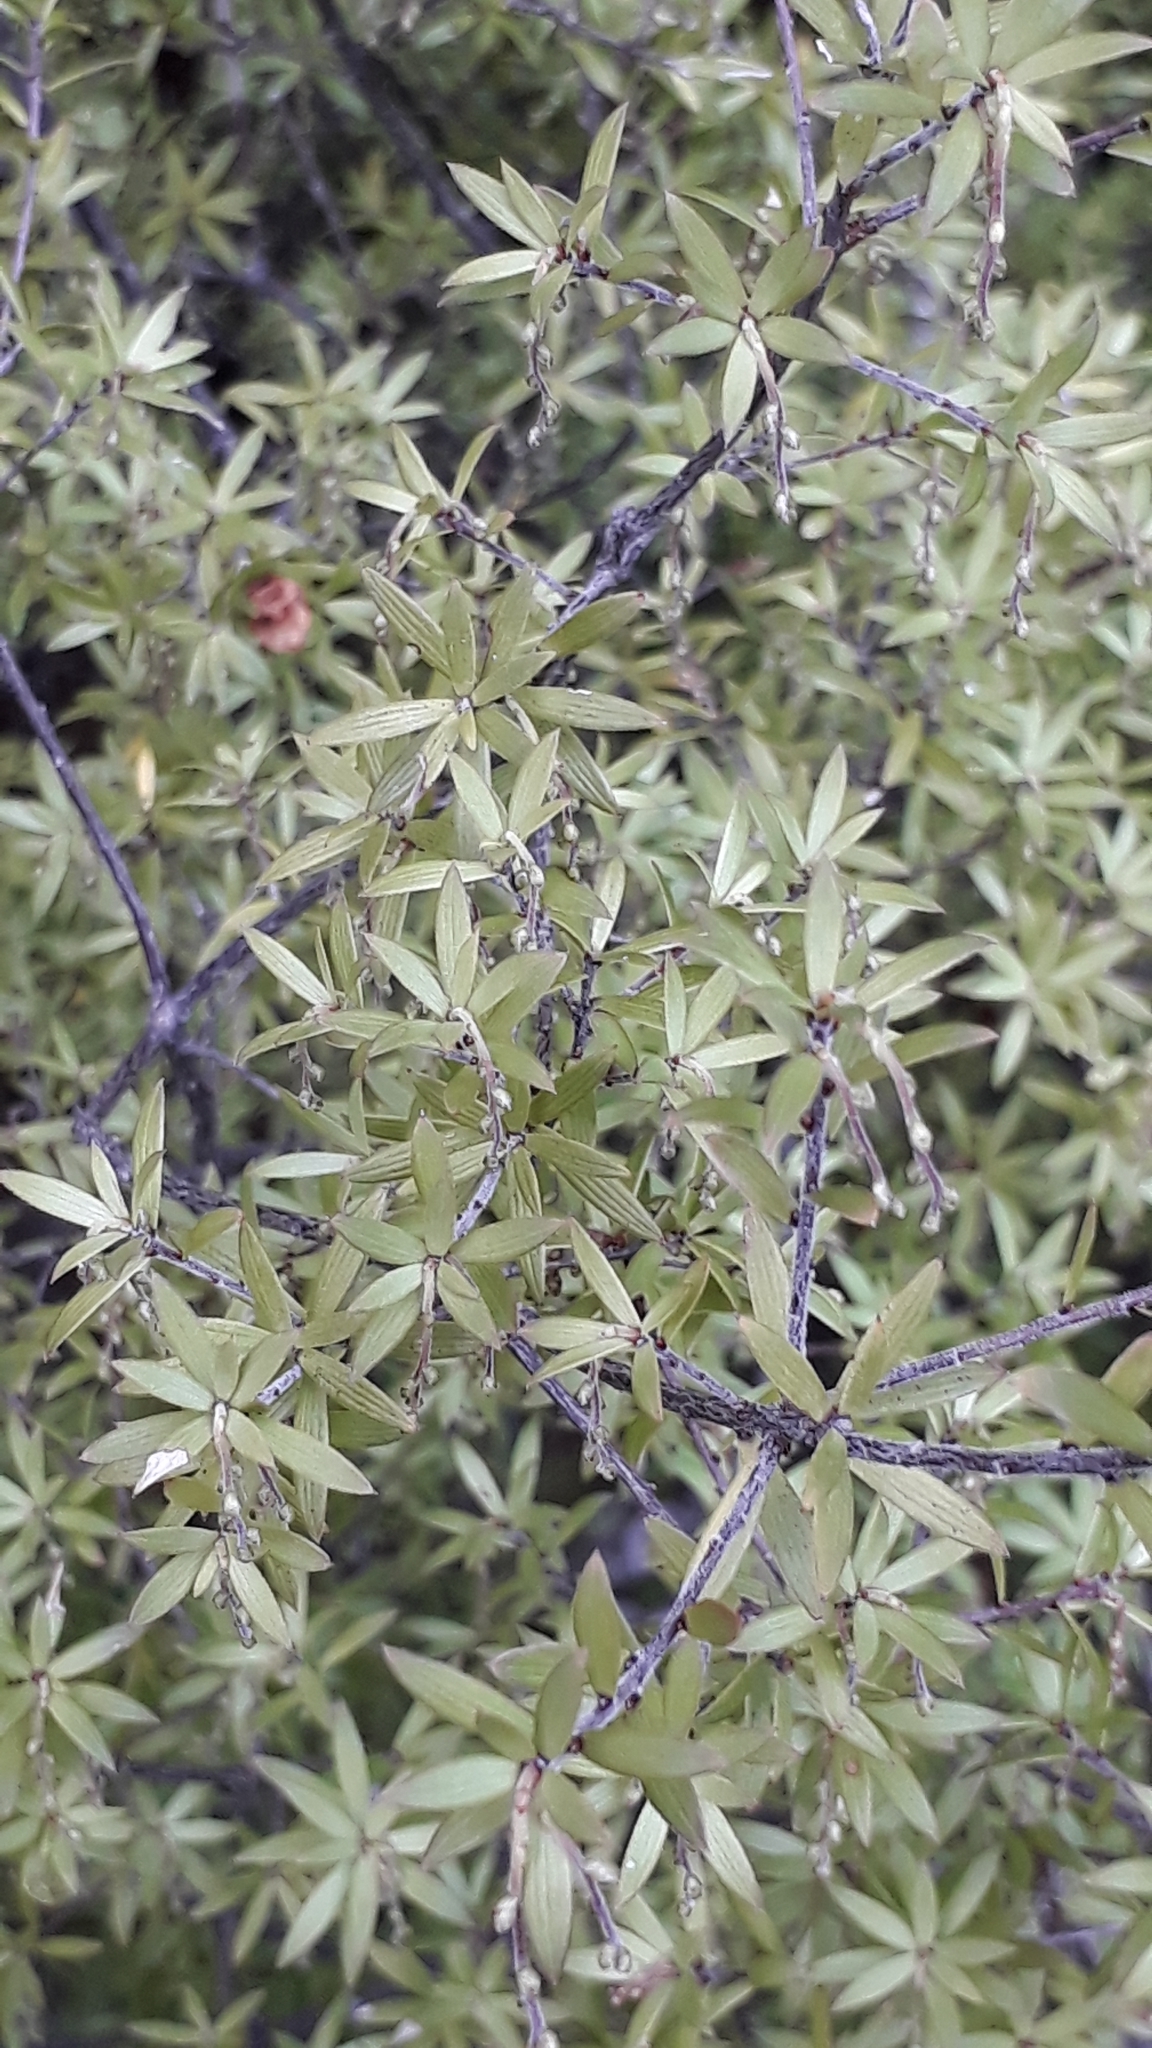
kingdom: Plantae
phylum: Tracheophyta
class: Magnoliopsida
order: Ericales
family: Ericaceae
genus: Leucopogon
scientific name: Leucopogon fasciculatus
